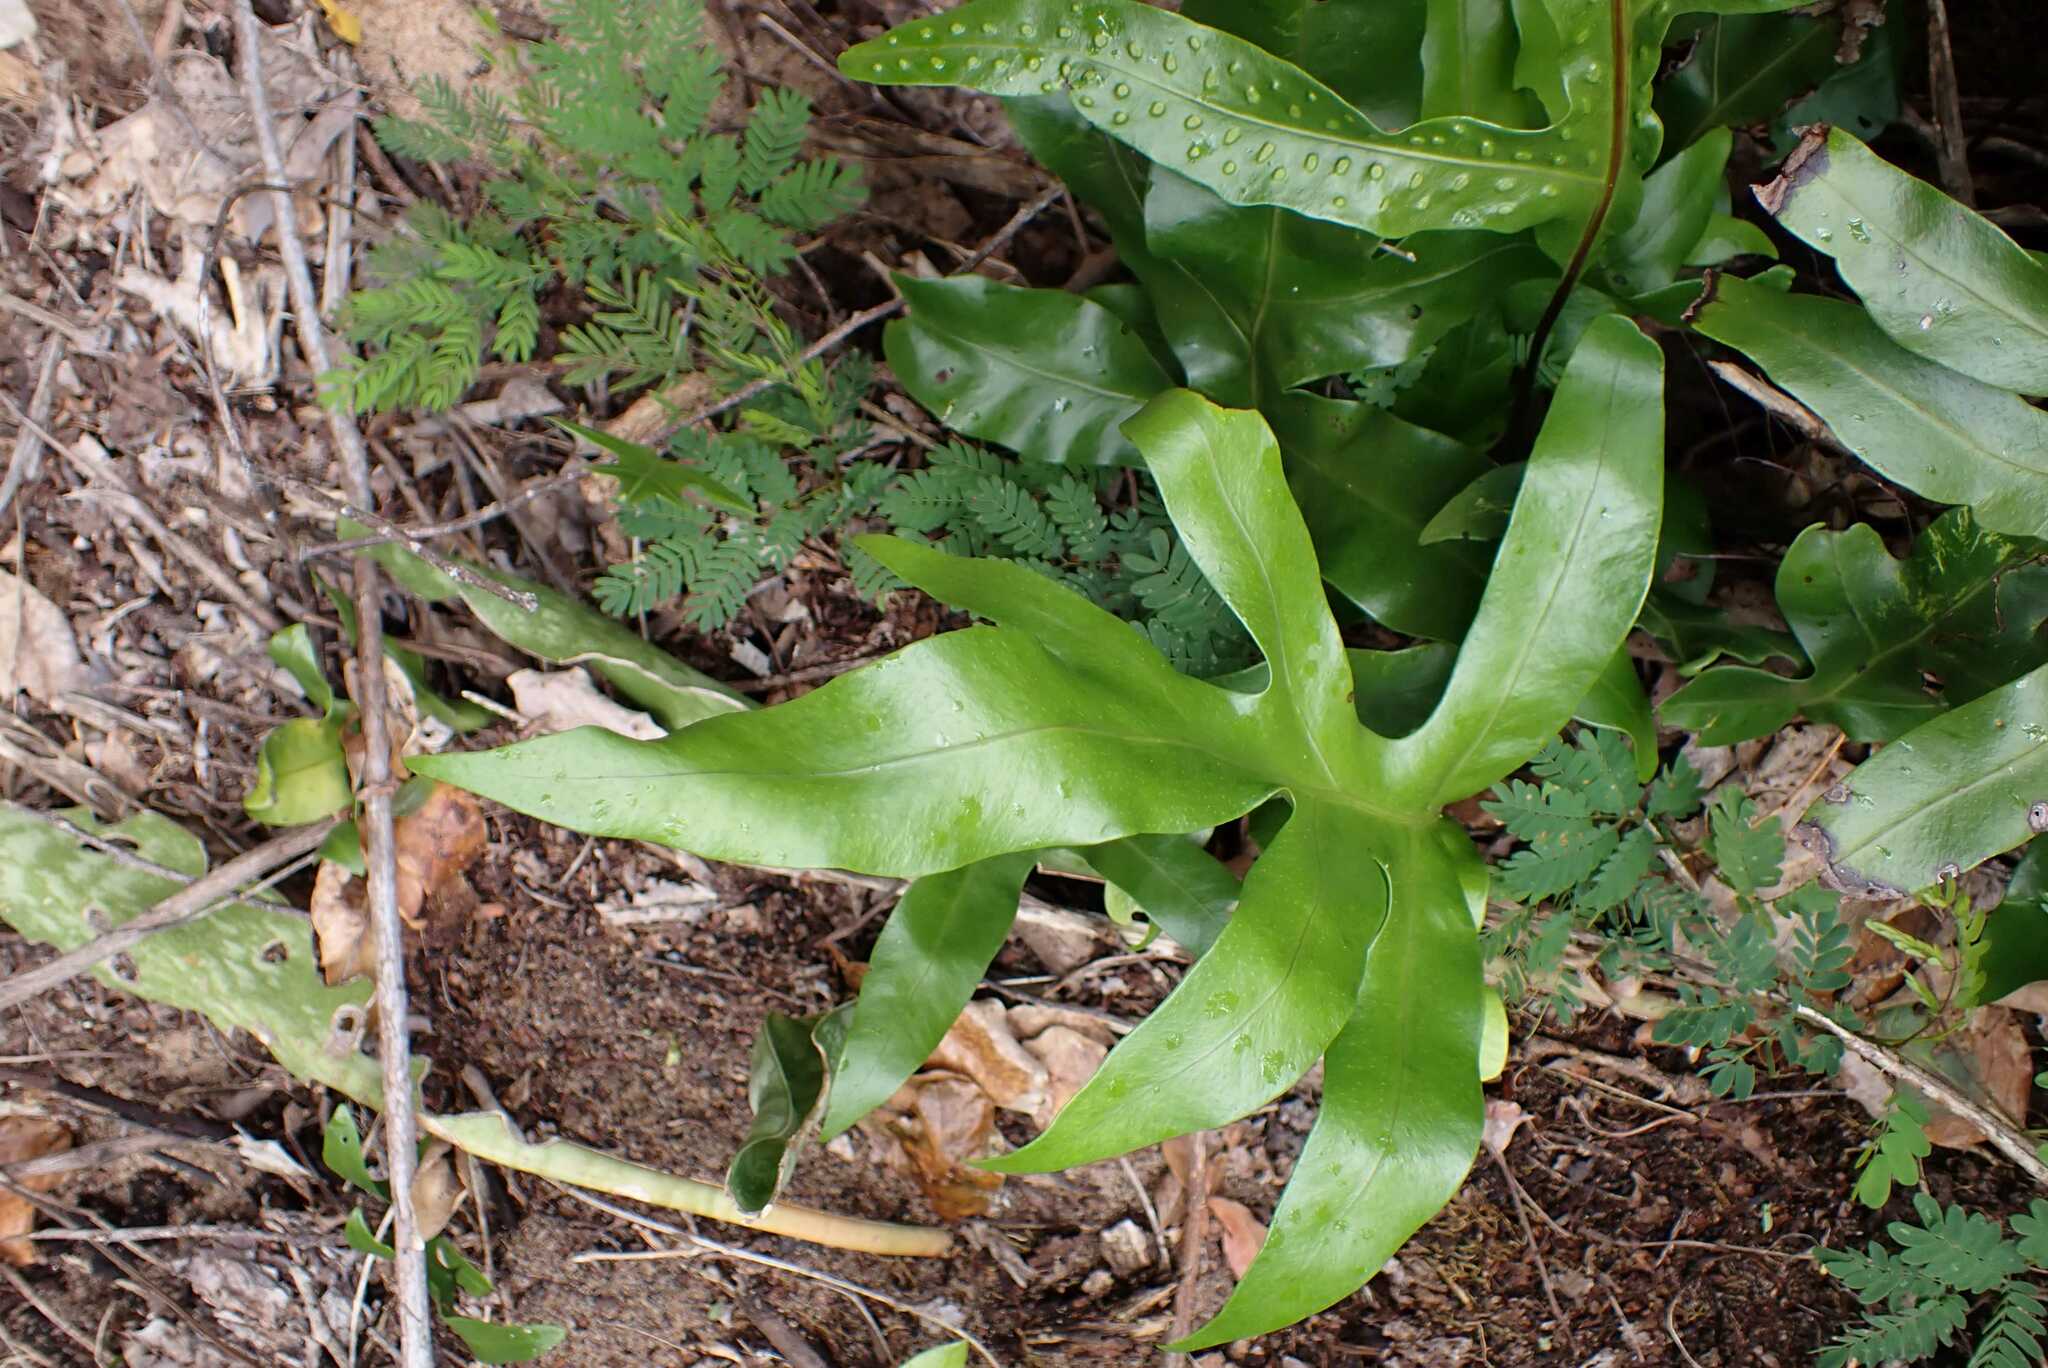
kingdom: Plantae
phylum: Tracheophyta
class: Polypodiopsida
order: Polypodiales
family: Polypodiaceae
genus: Microsorum
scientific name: Microsorum scolopendria
